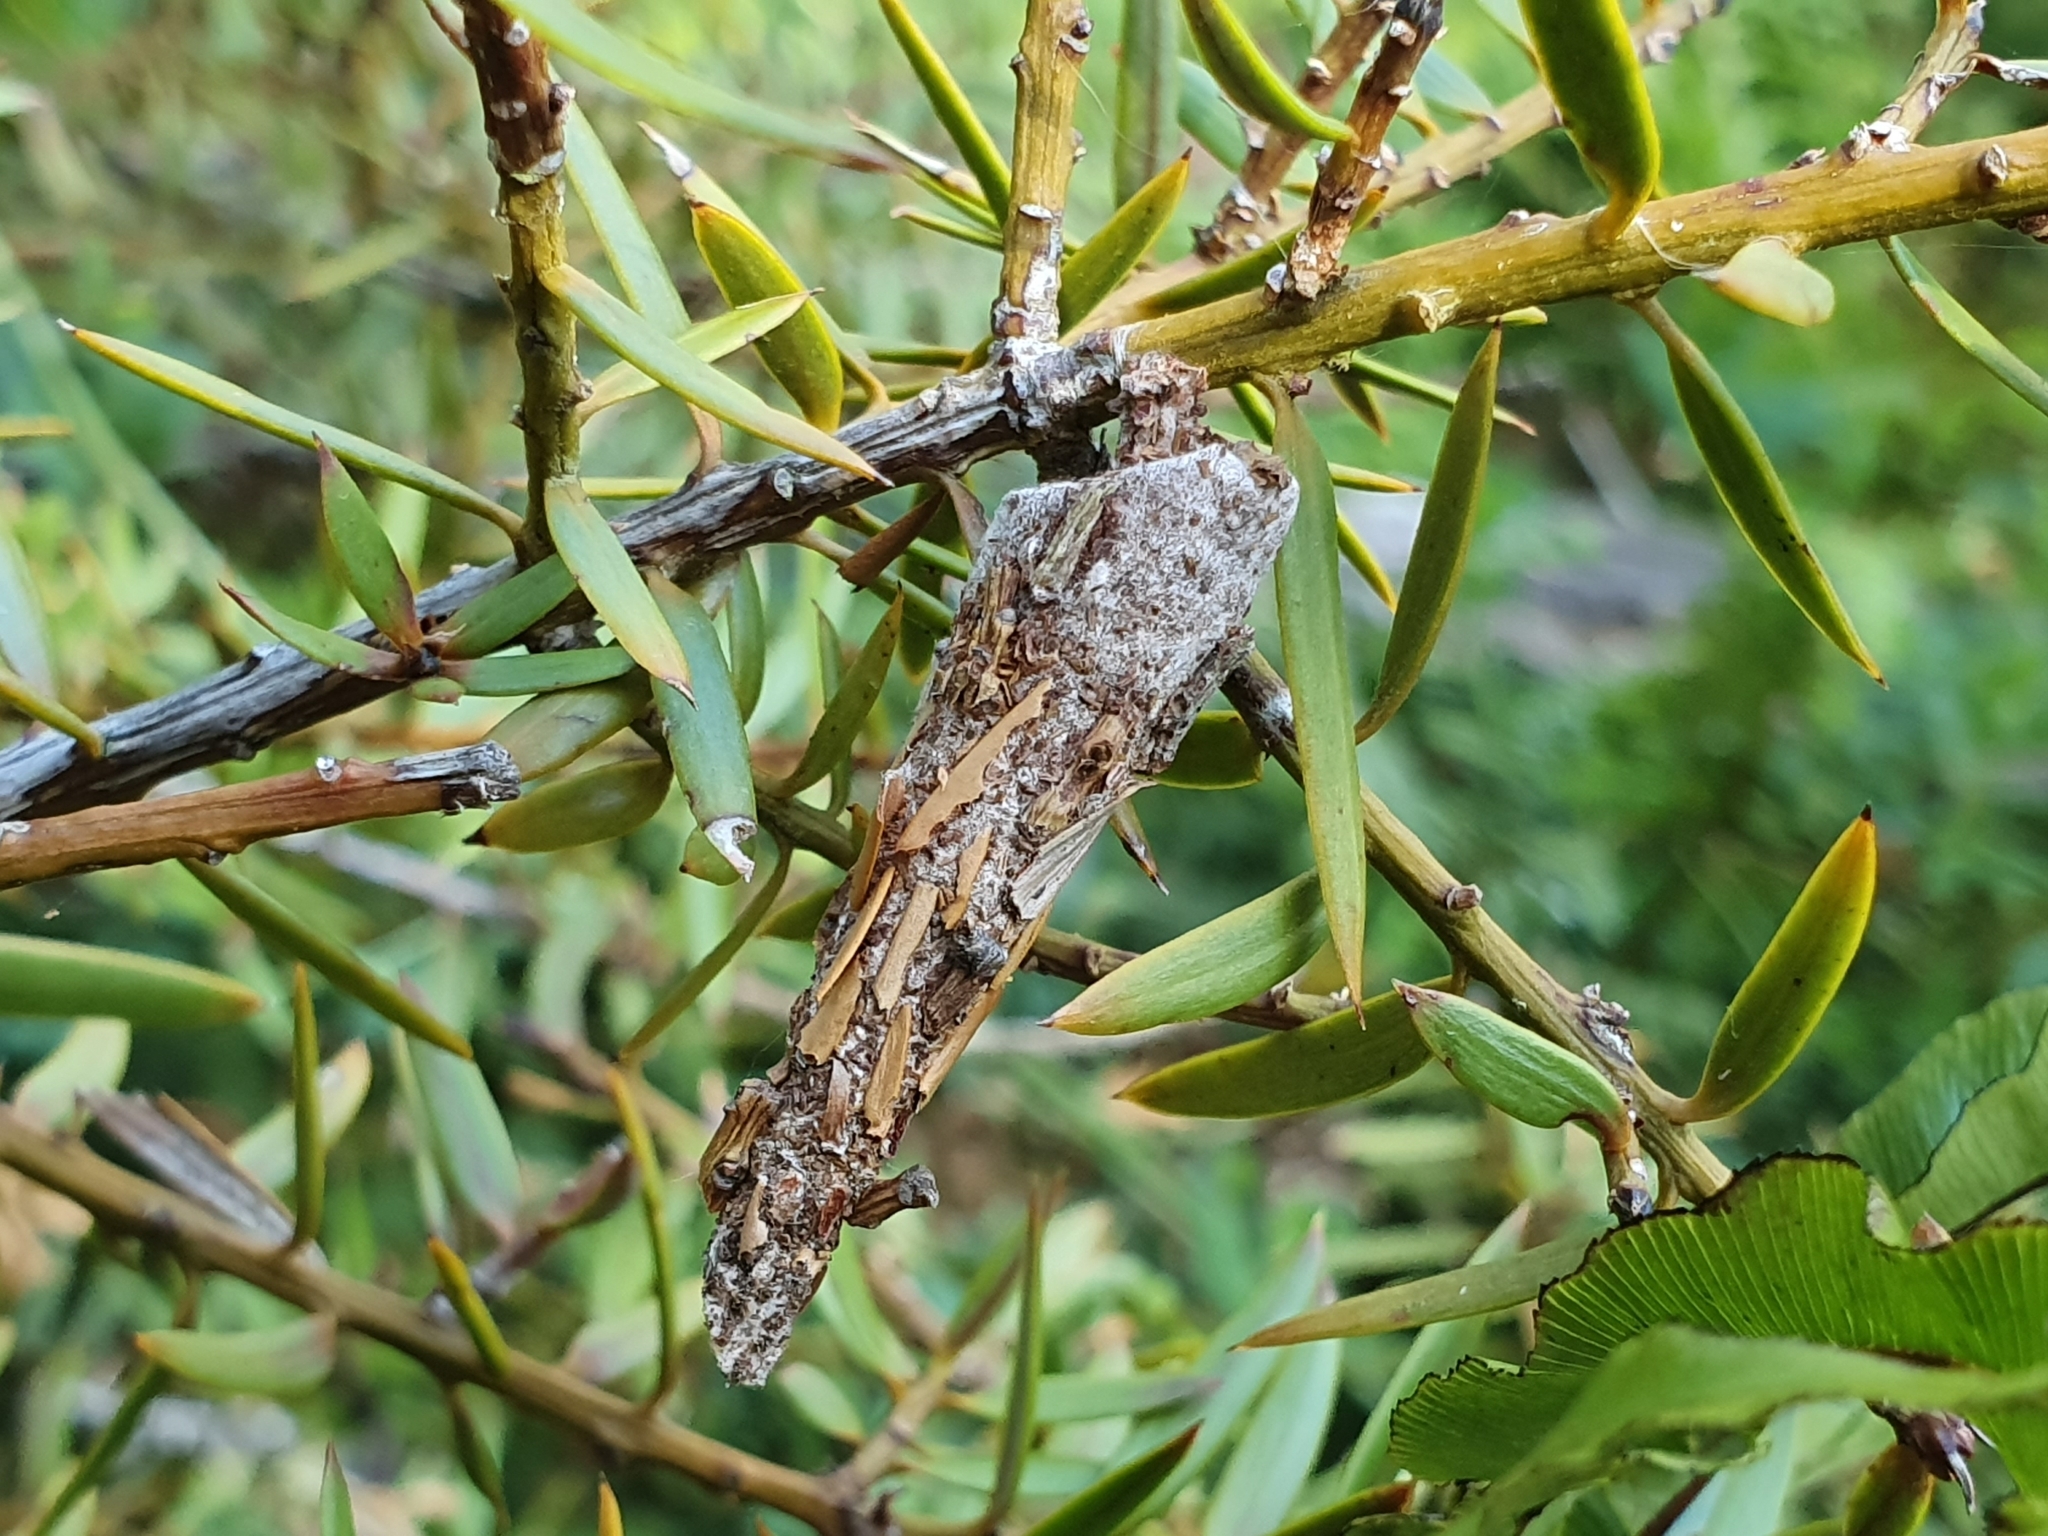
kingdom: Animalia
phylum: Arthropoda
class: Insecta
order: Lepidoptera
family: Psychidae
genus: Liothula
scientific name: Liothula omnivora
